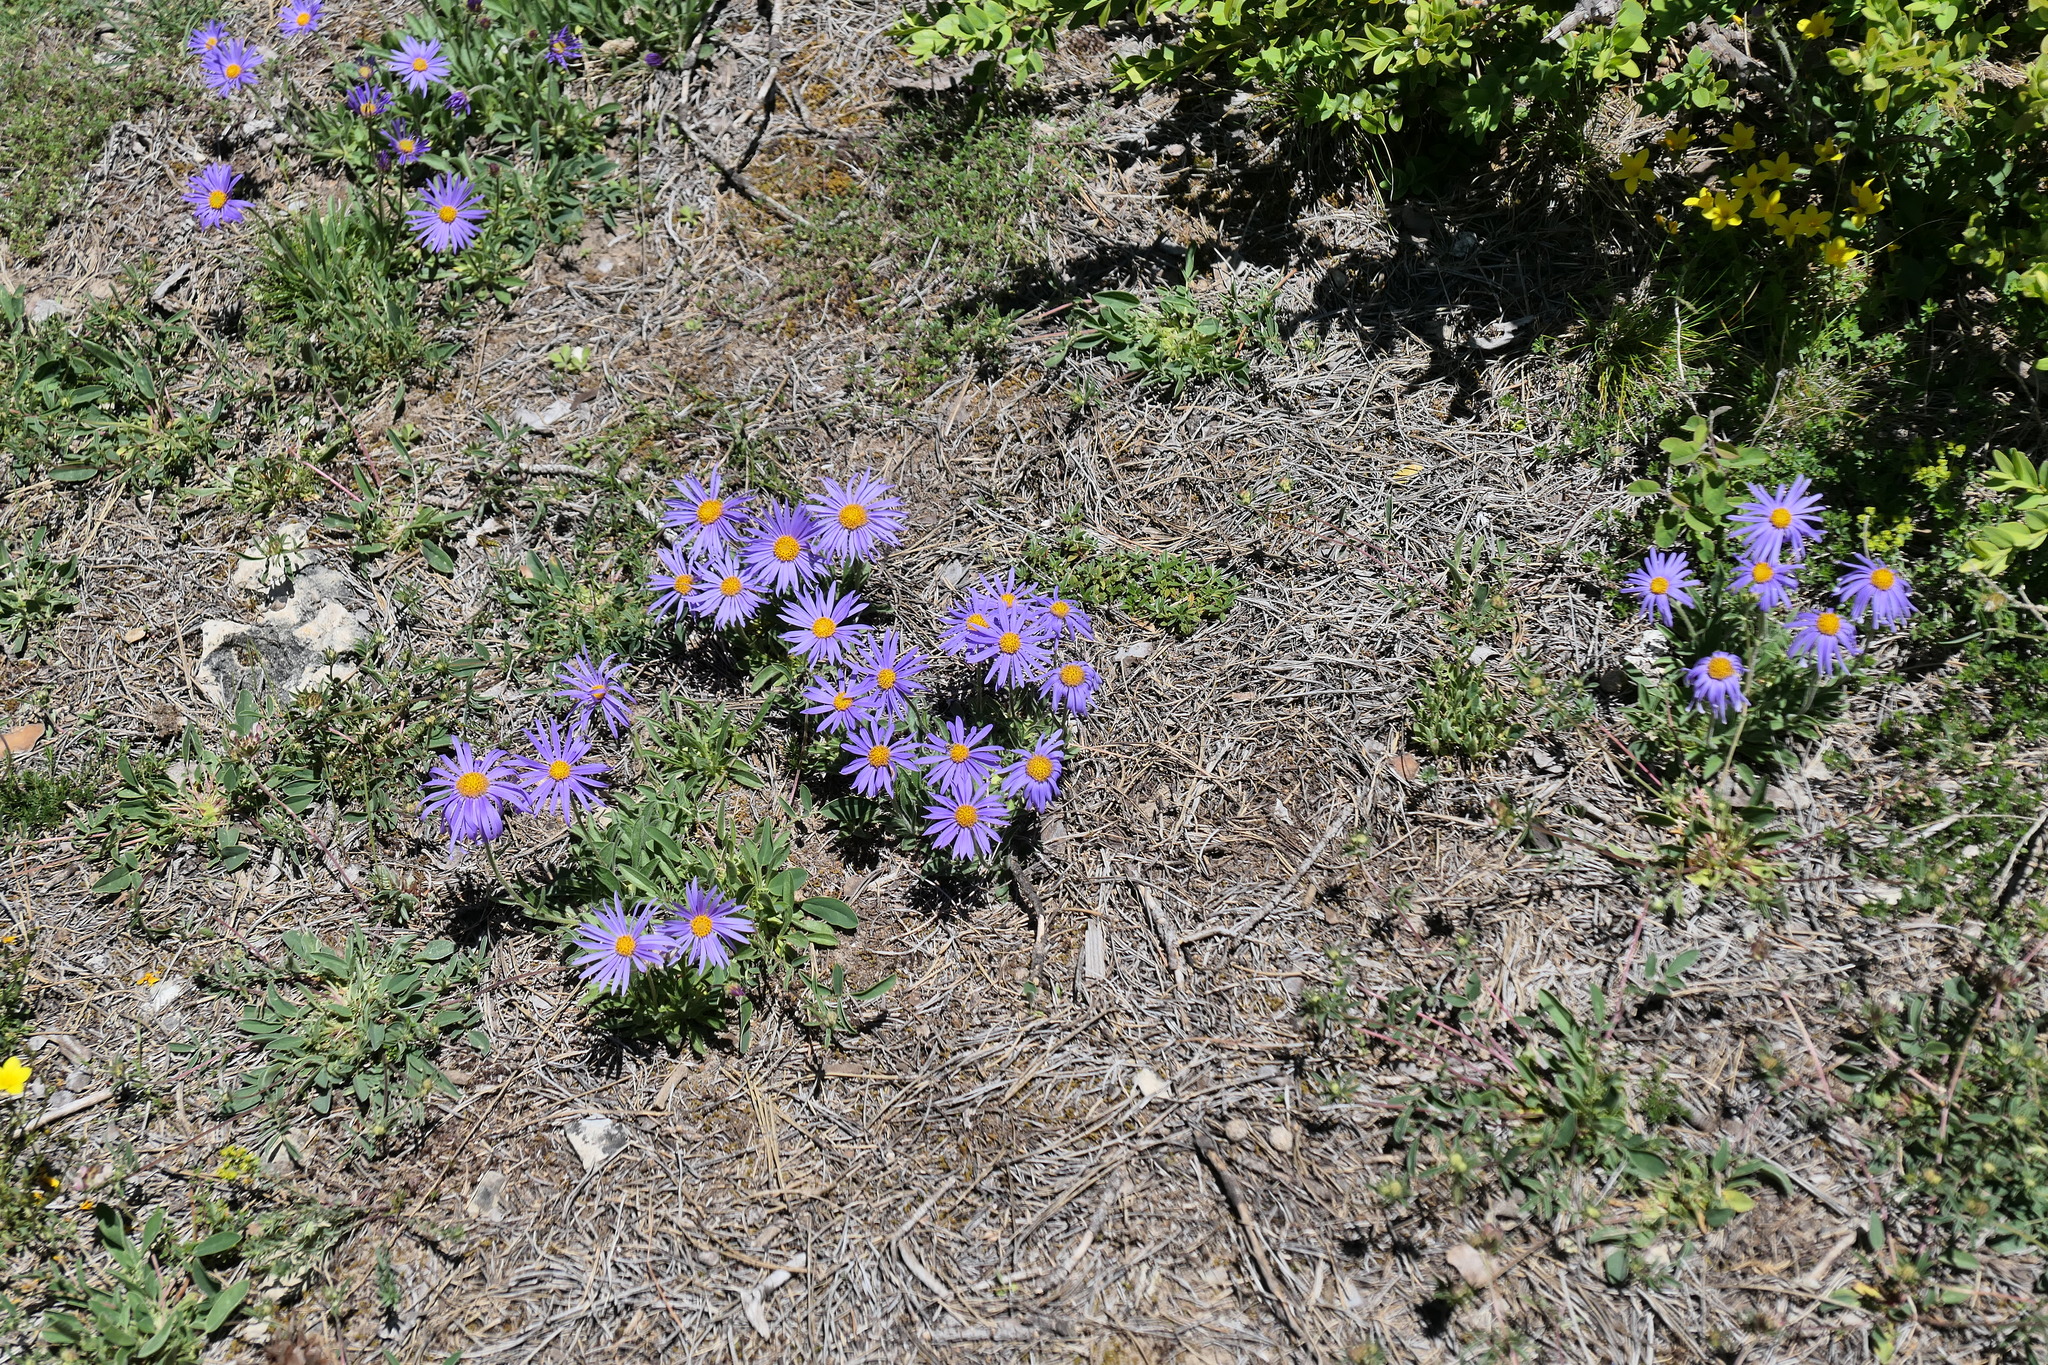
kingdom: Plantae
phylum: Tracheophyta
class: Magnoliopsida
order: Asterales
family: Asteraceae
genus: Aster
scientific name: Aster alpinus
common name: Alpine aster
